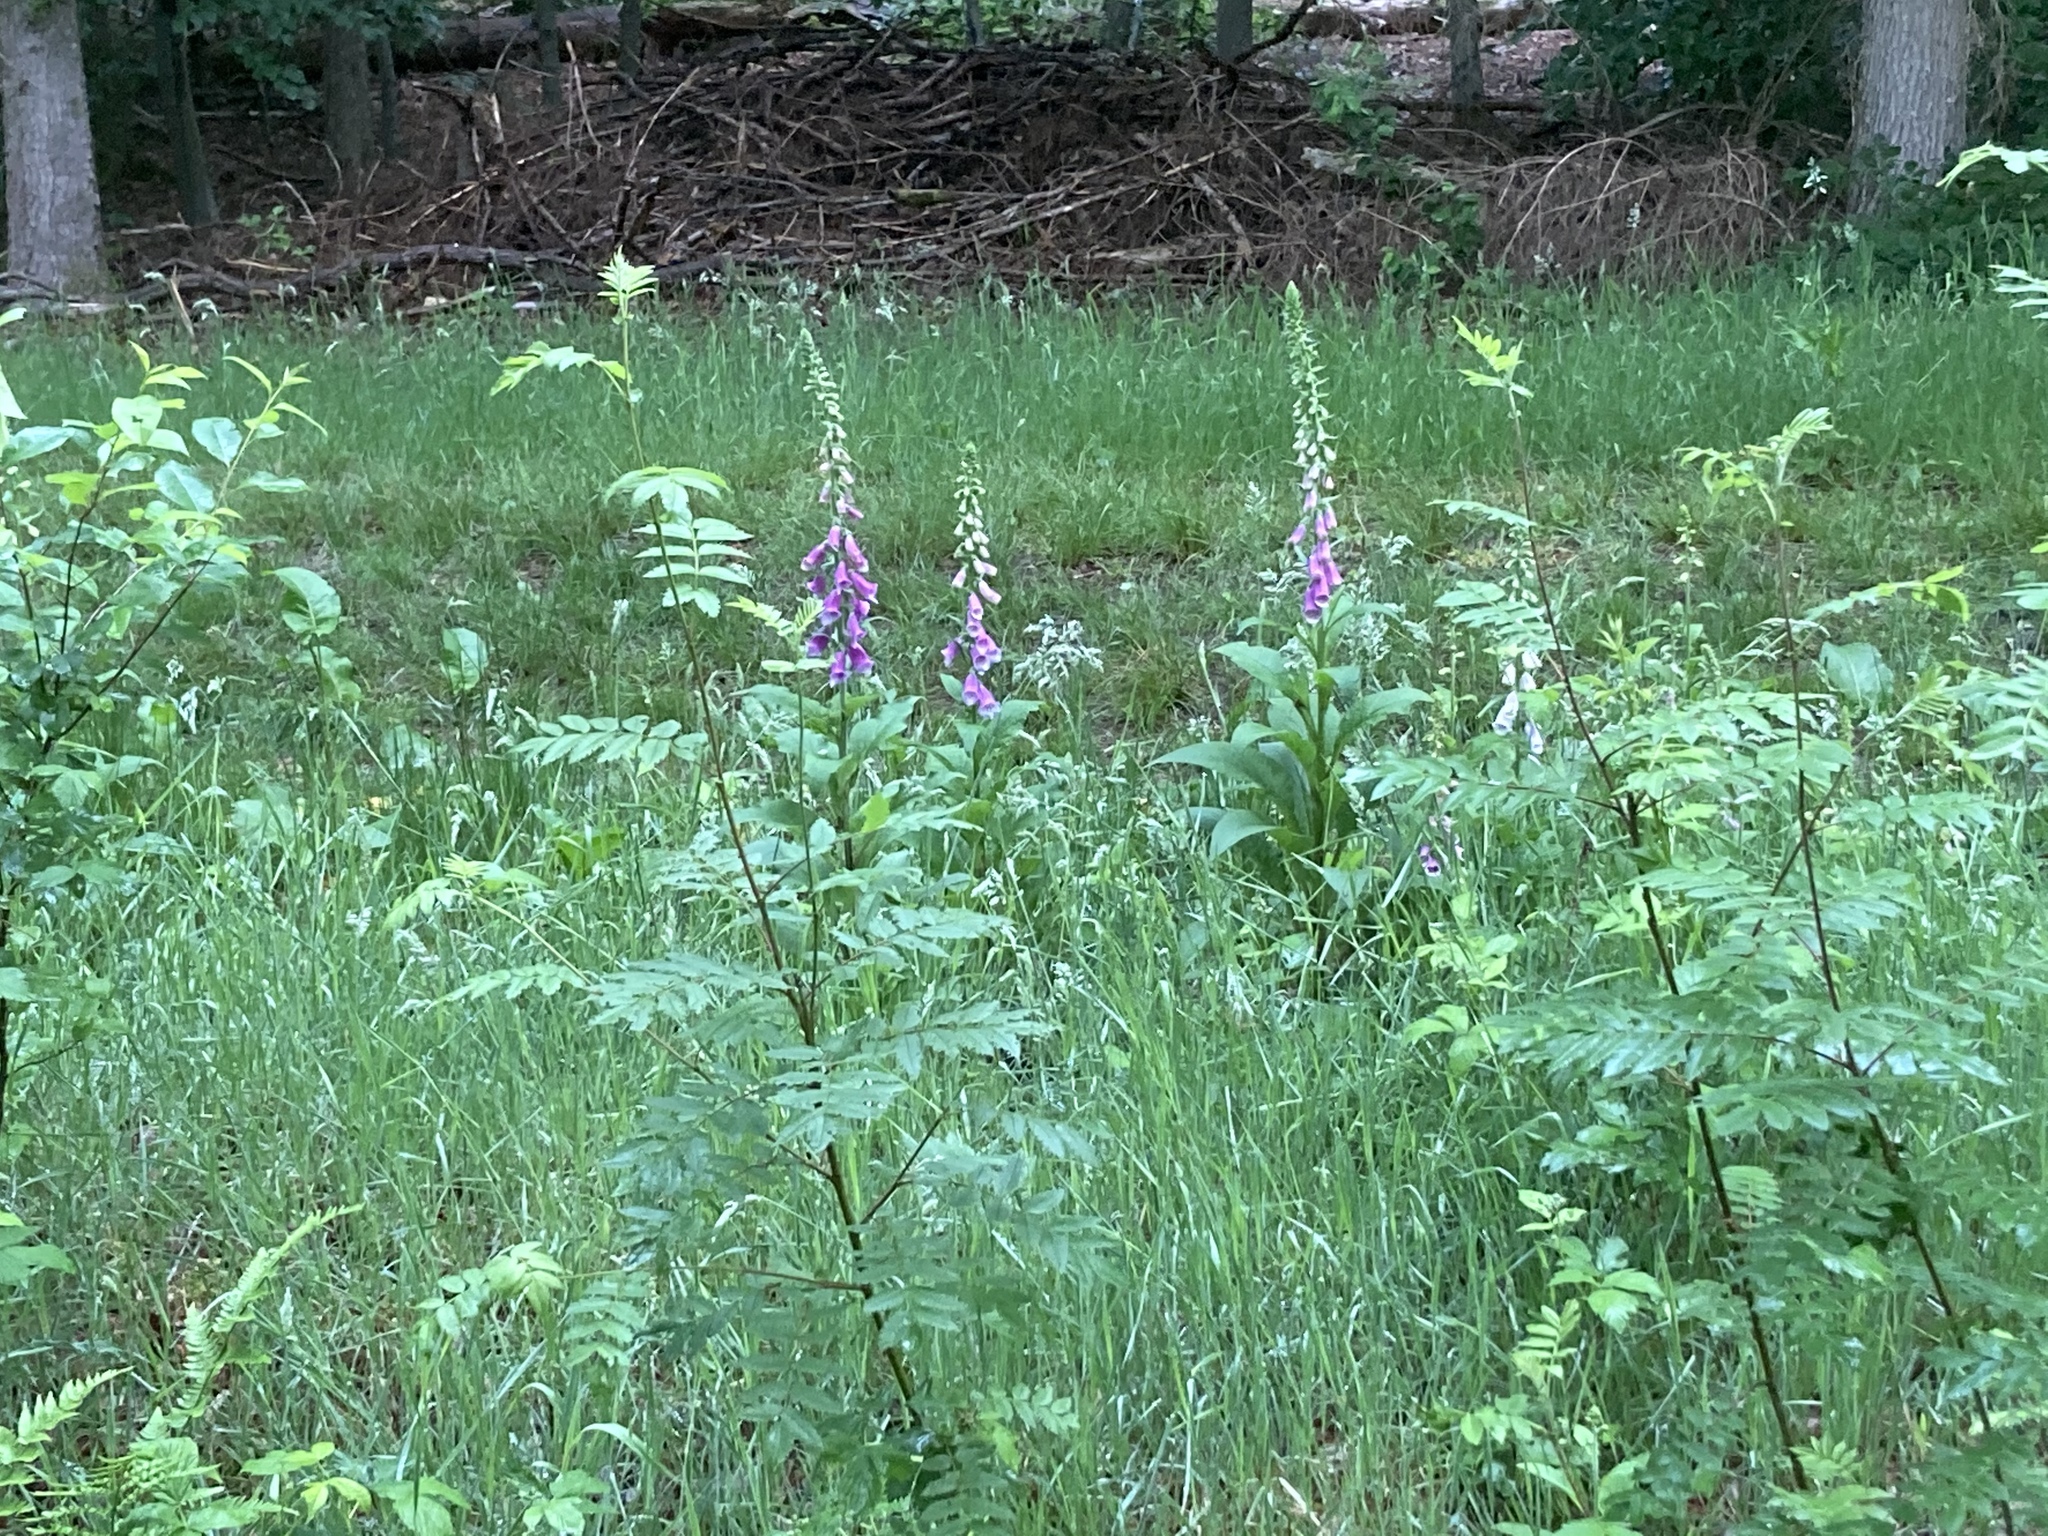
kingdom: Plantae
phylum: Tracheophyta
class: Magnoliopsida
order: Lamiales
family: Plantaginaceae
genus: Digitalis
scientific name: Digitalis purpurea
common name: Foxglove
